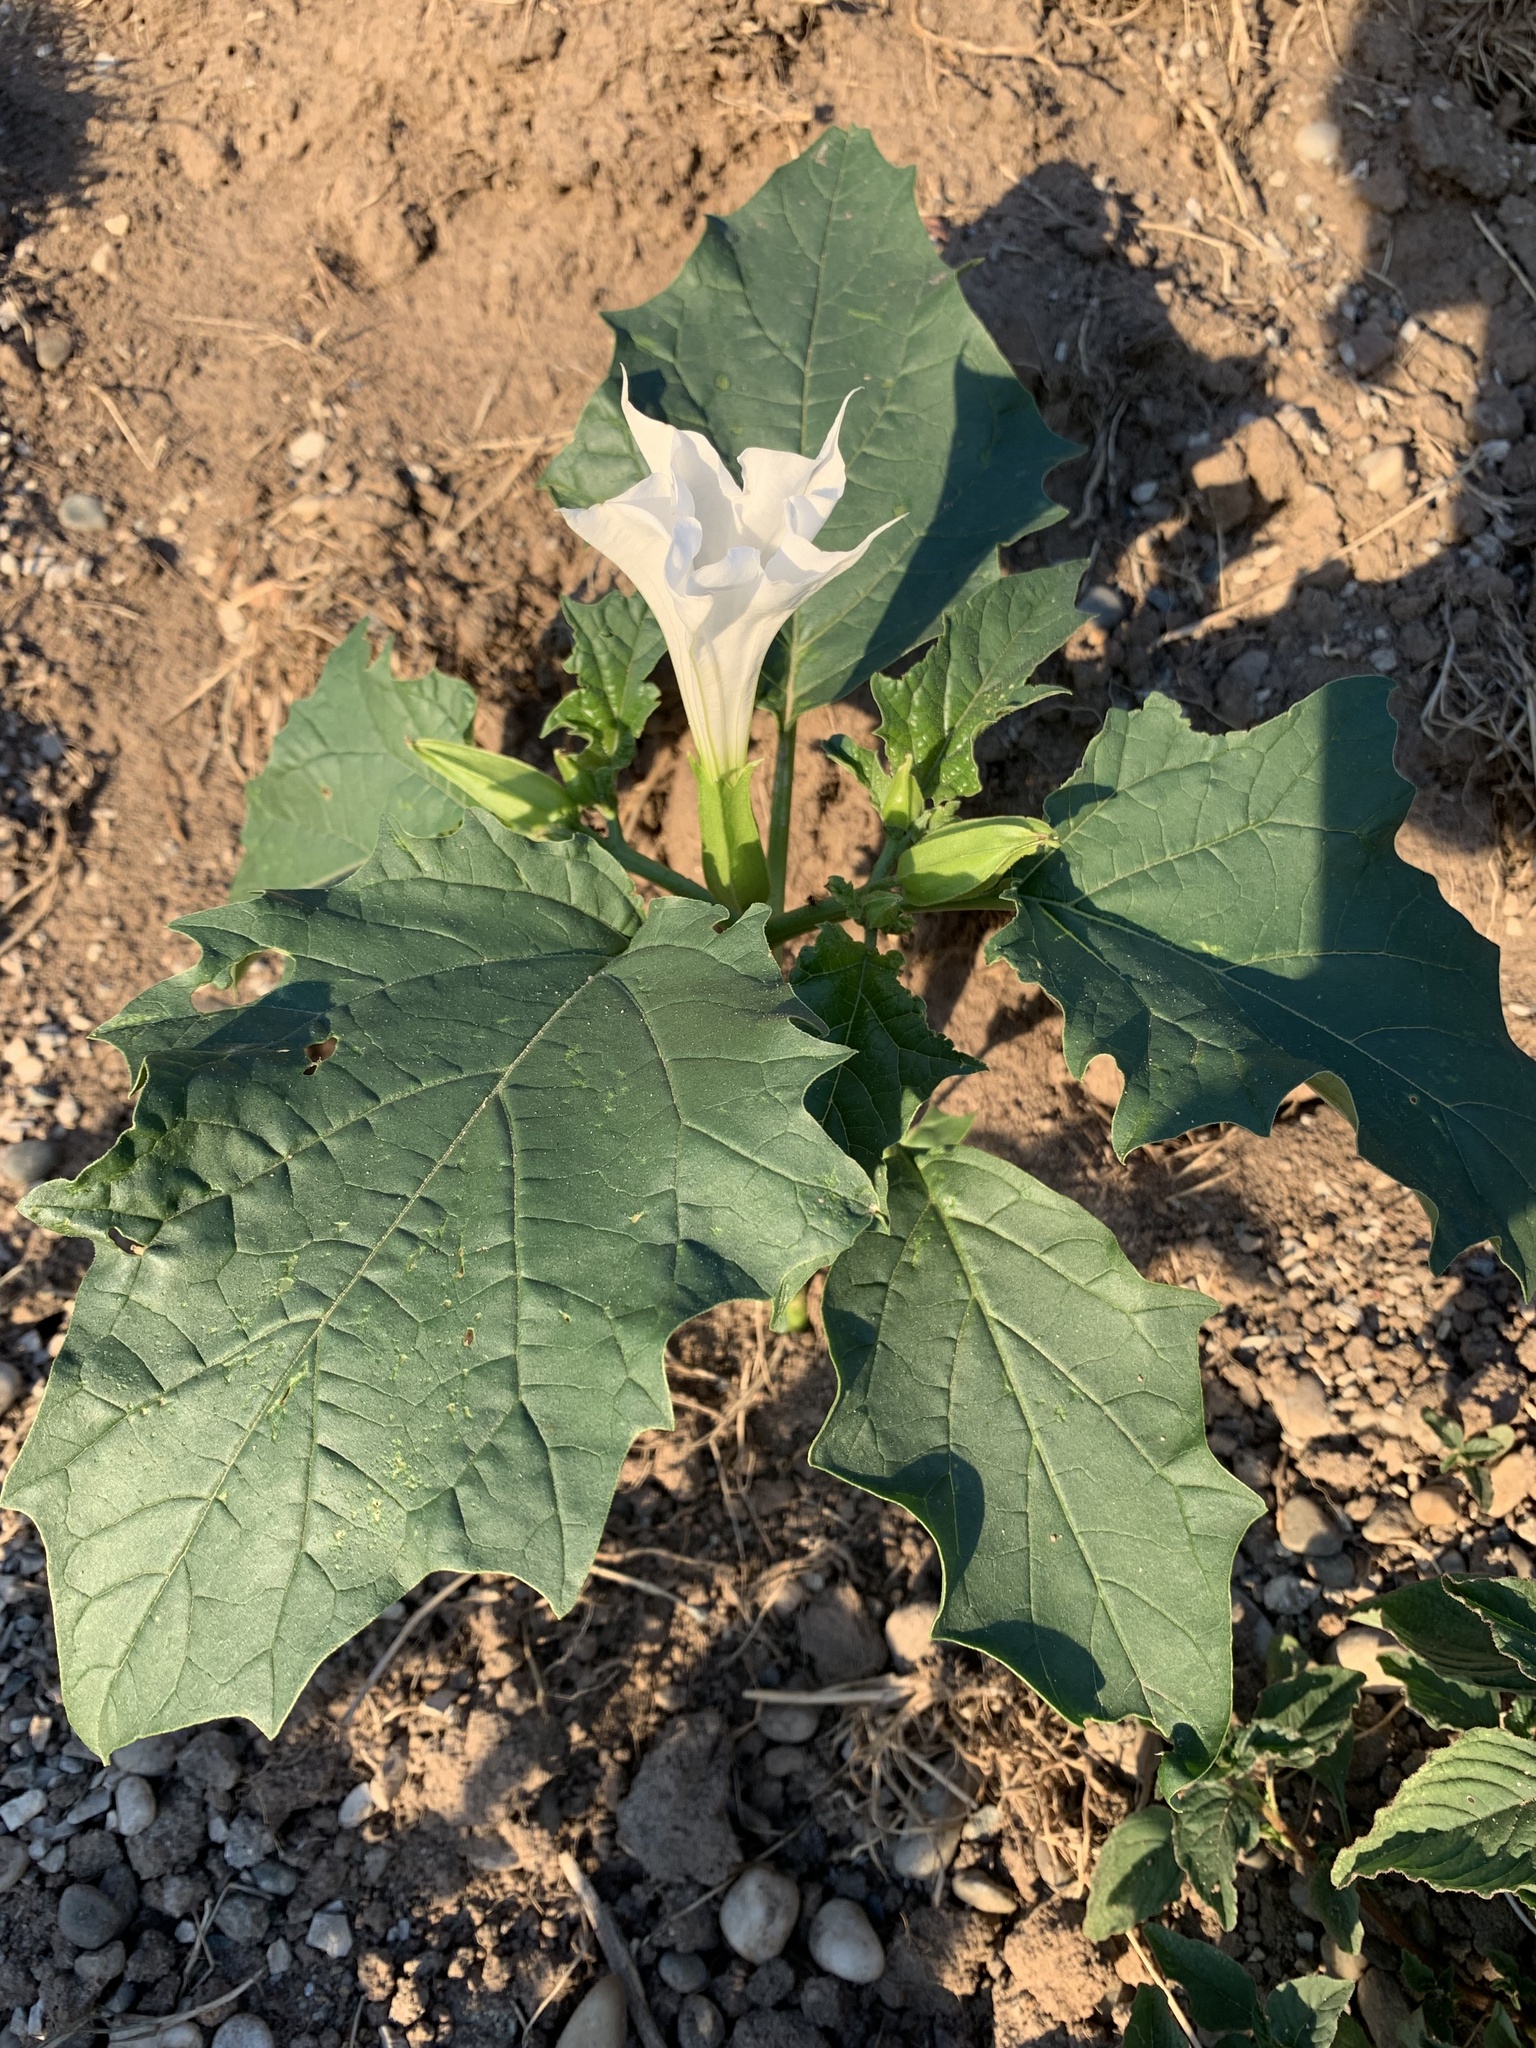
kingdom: Plantae
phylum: Tracheophyta
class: Magnoliopsida
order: Solanales
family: Solanaceae
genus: Datura
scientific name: Datura stramonium
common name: Thorn-apple
